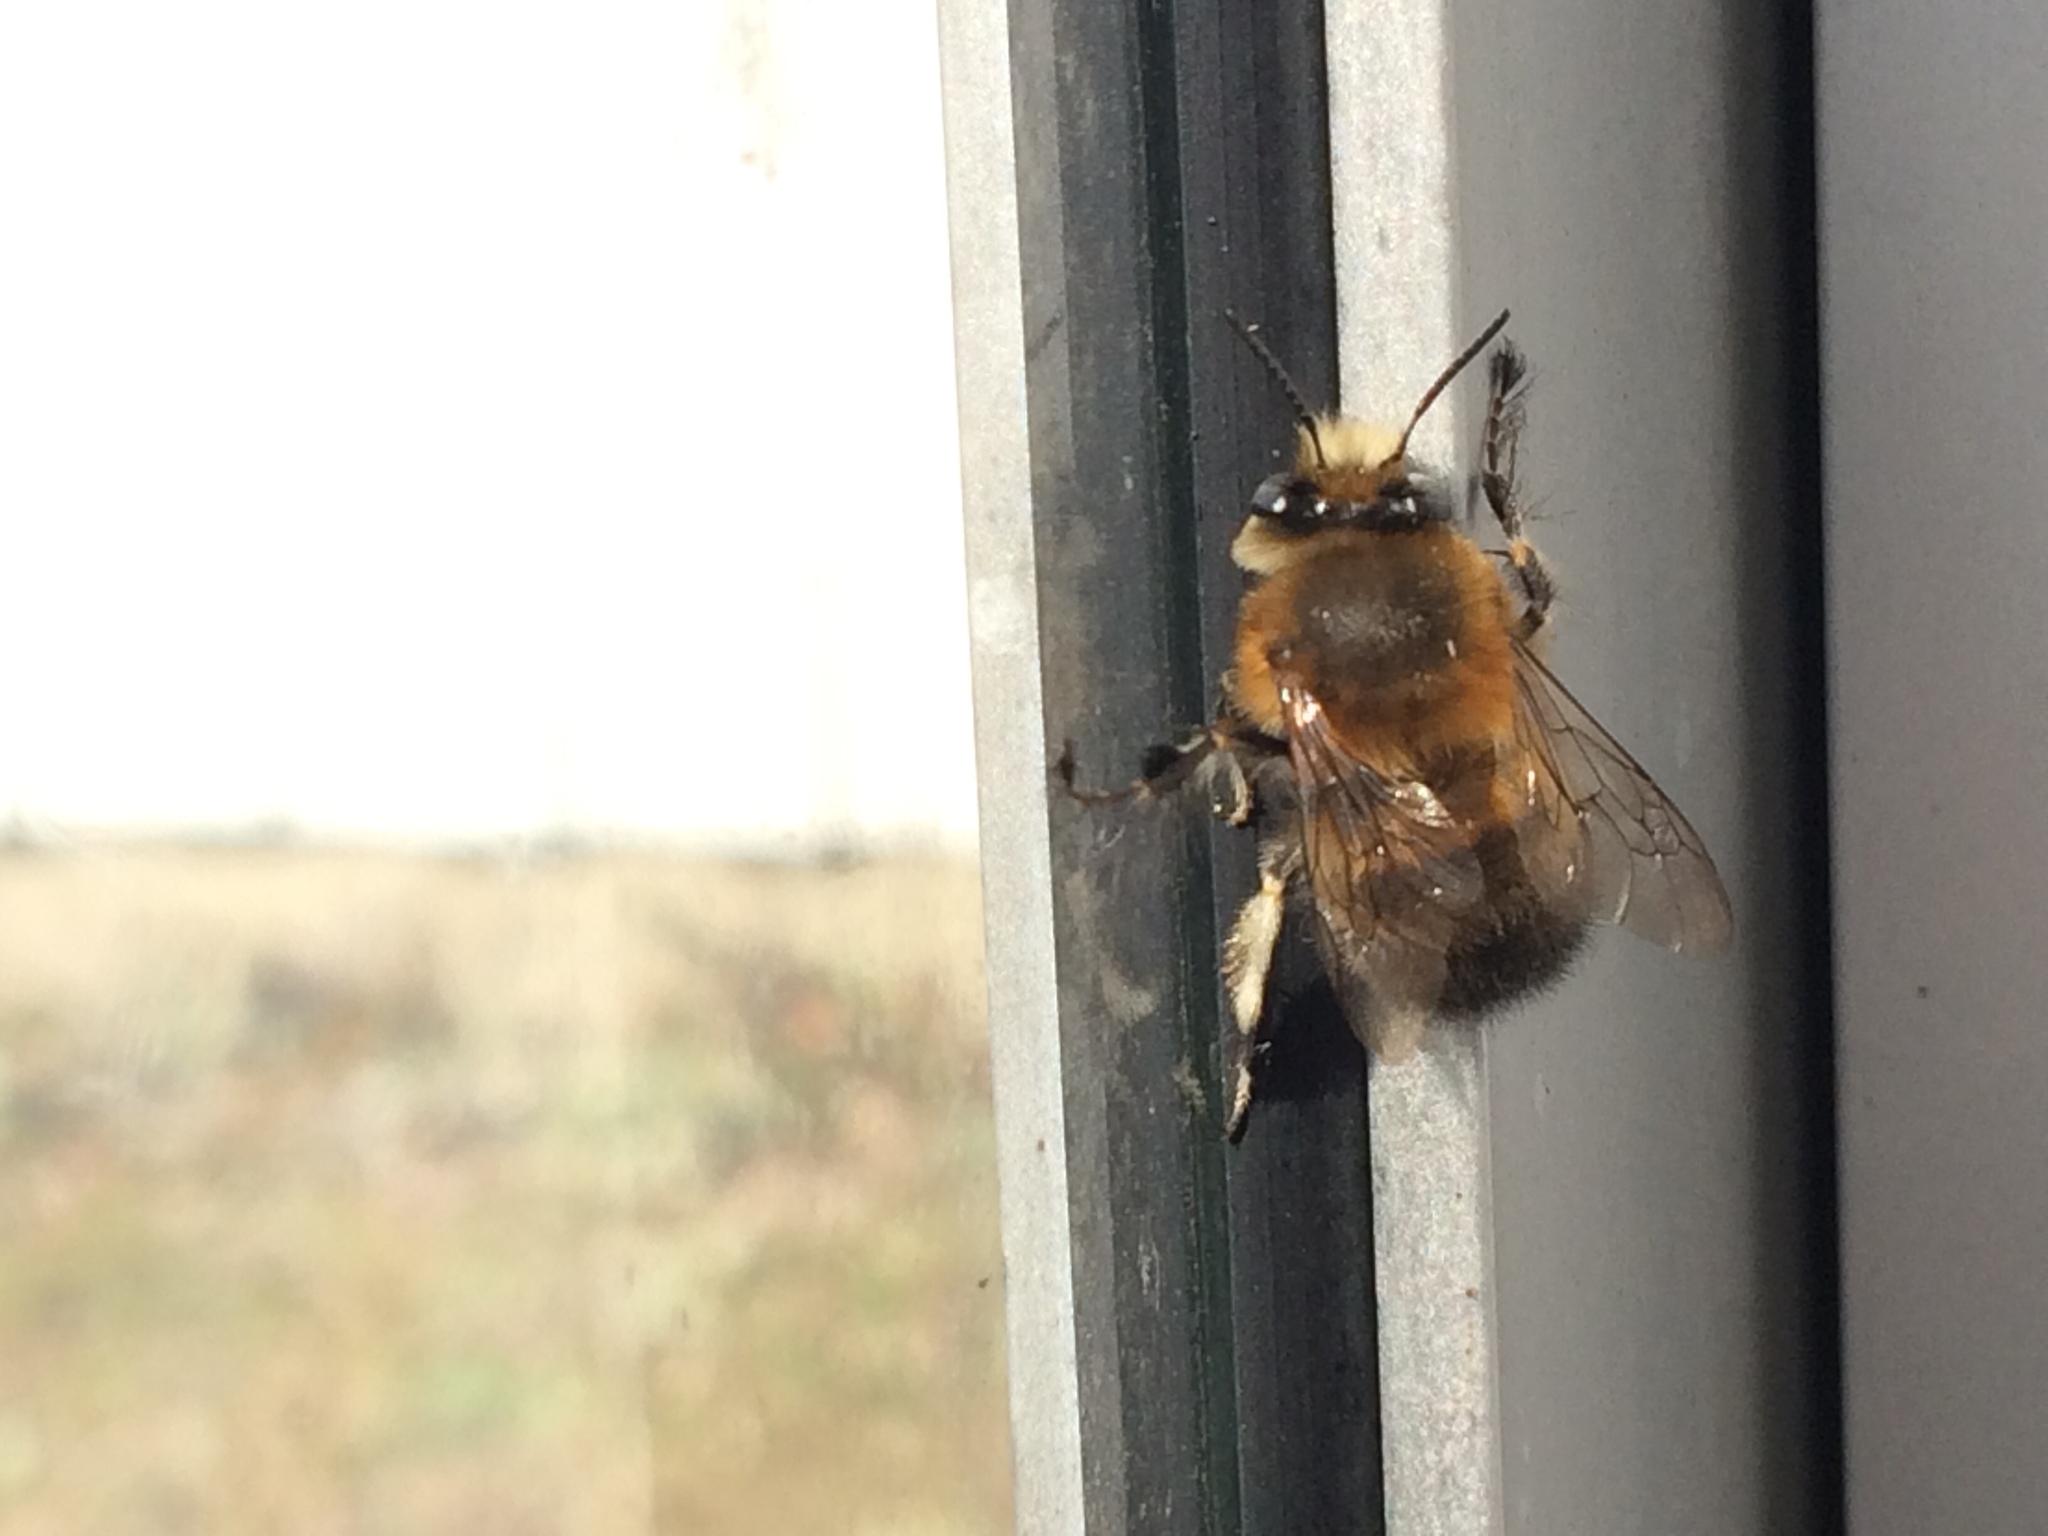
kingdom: Animalia
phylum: Arthropoda
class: Insecta
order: Hymenoptera
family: Apidae
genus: Anthophora
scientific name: Anthophora plumipes
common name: Hairy-footed flower bee
